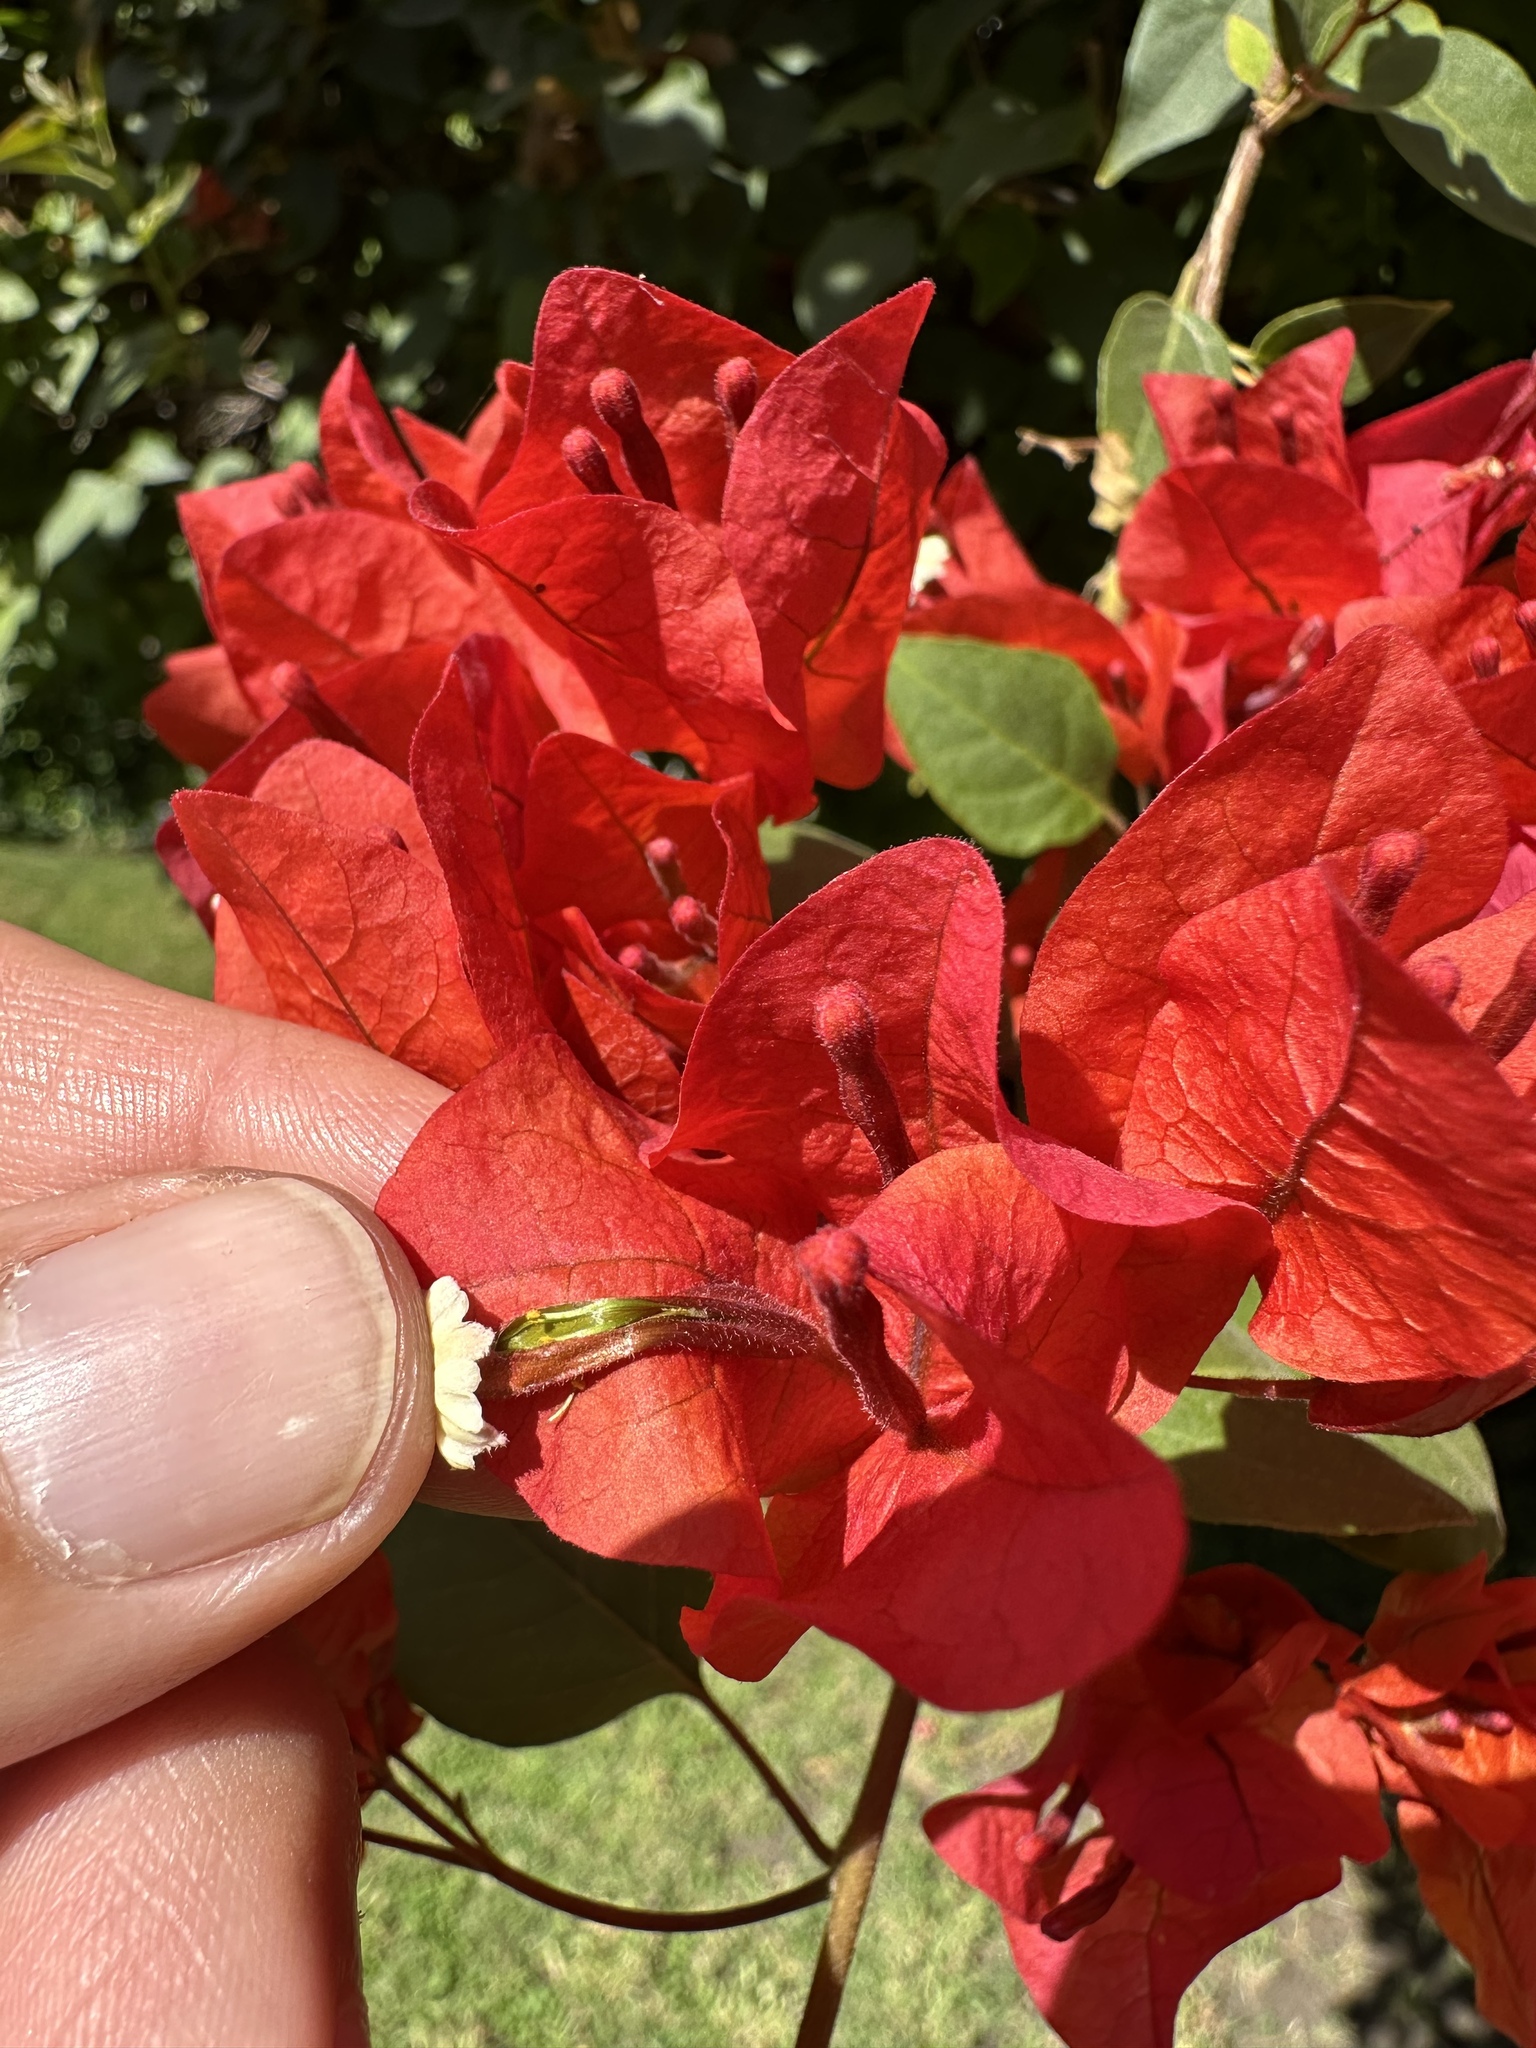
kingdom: Animalia
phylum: Arthropoda
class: Insecta
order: Hymenoptera
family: Apidae
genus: Xylocopa
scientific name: Xylocopa augusti
